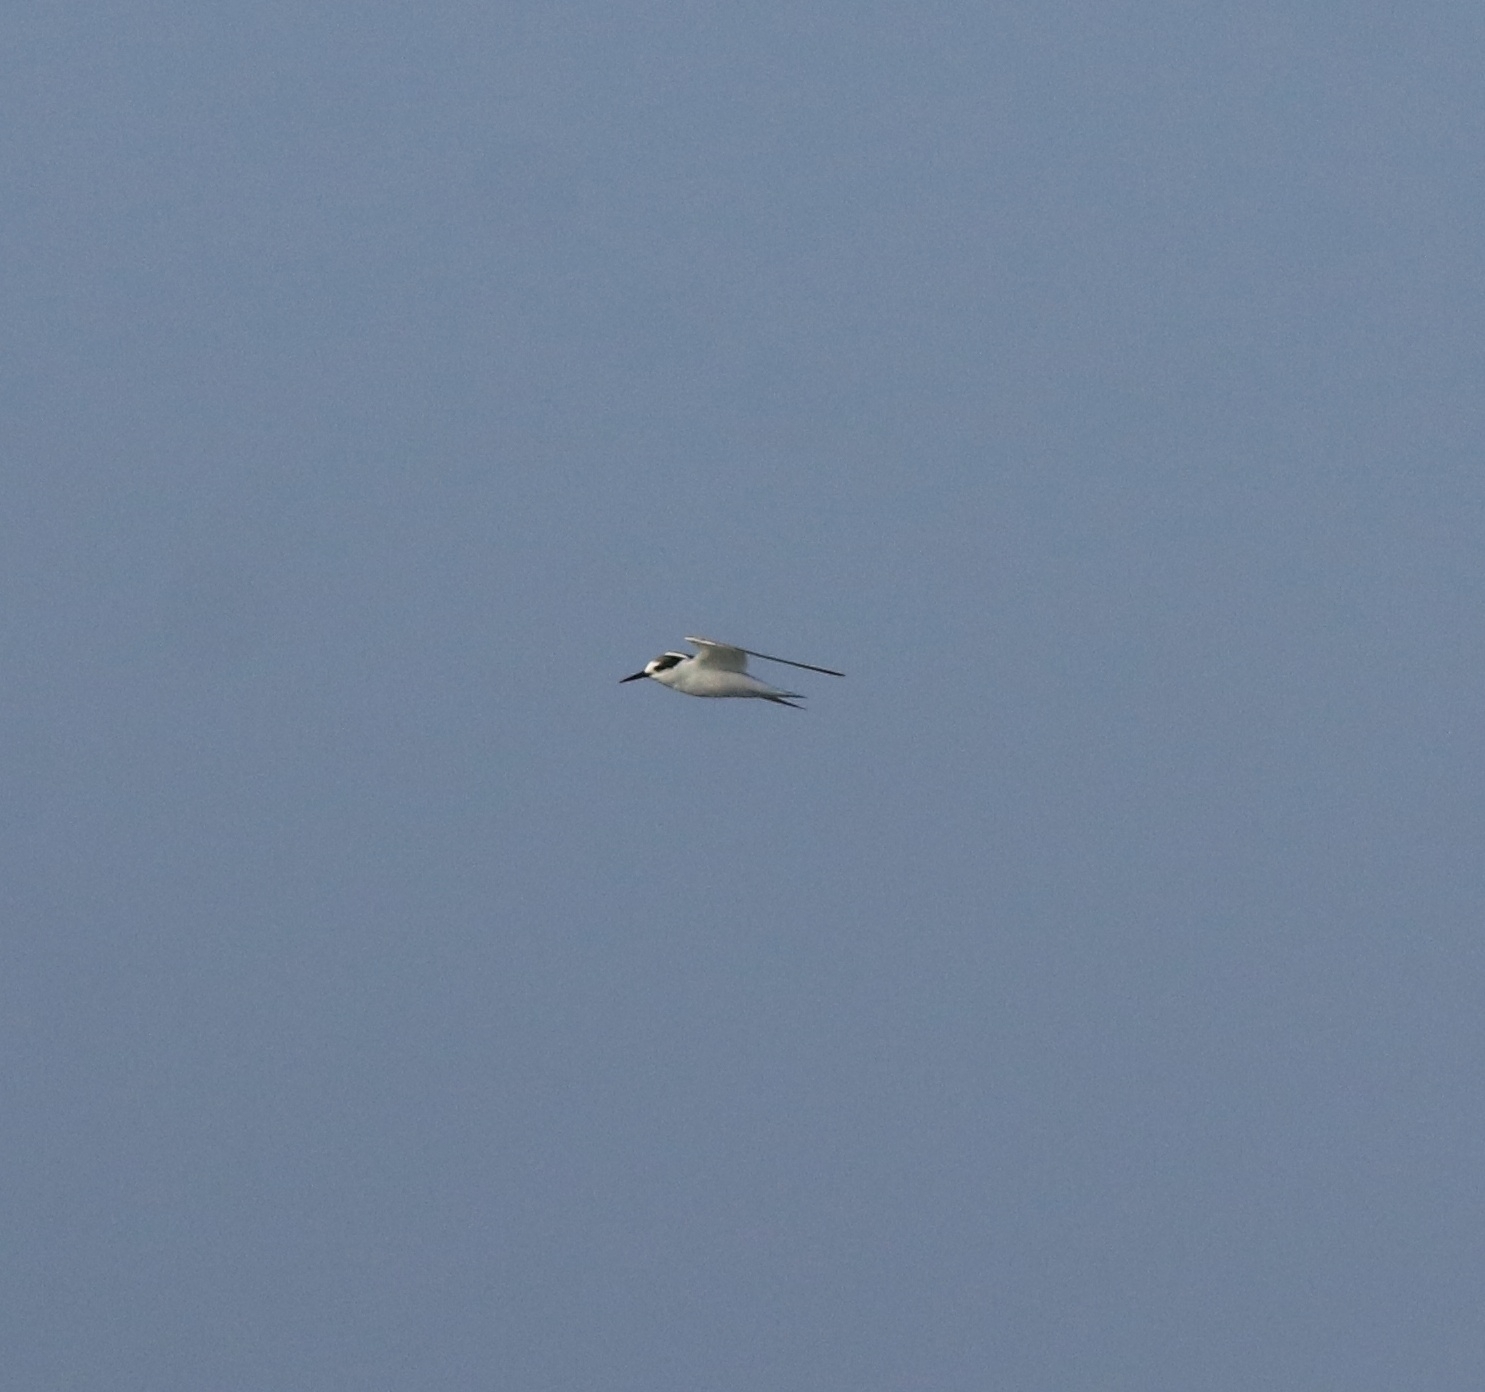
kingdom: Animalia
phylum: Chordata
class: Aves
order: Charadriiformes
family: Laridae
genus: Sternula
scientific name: Sternula albifrons
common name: Little tern
